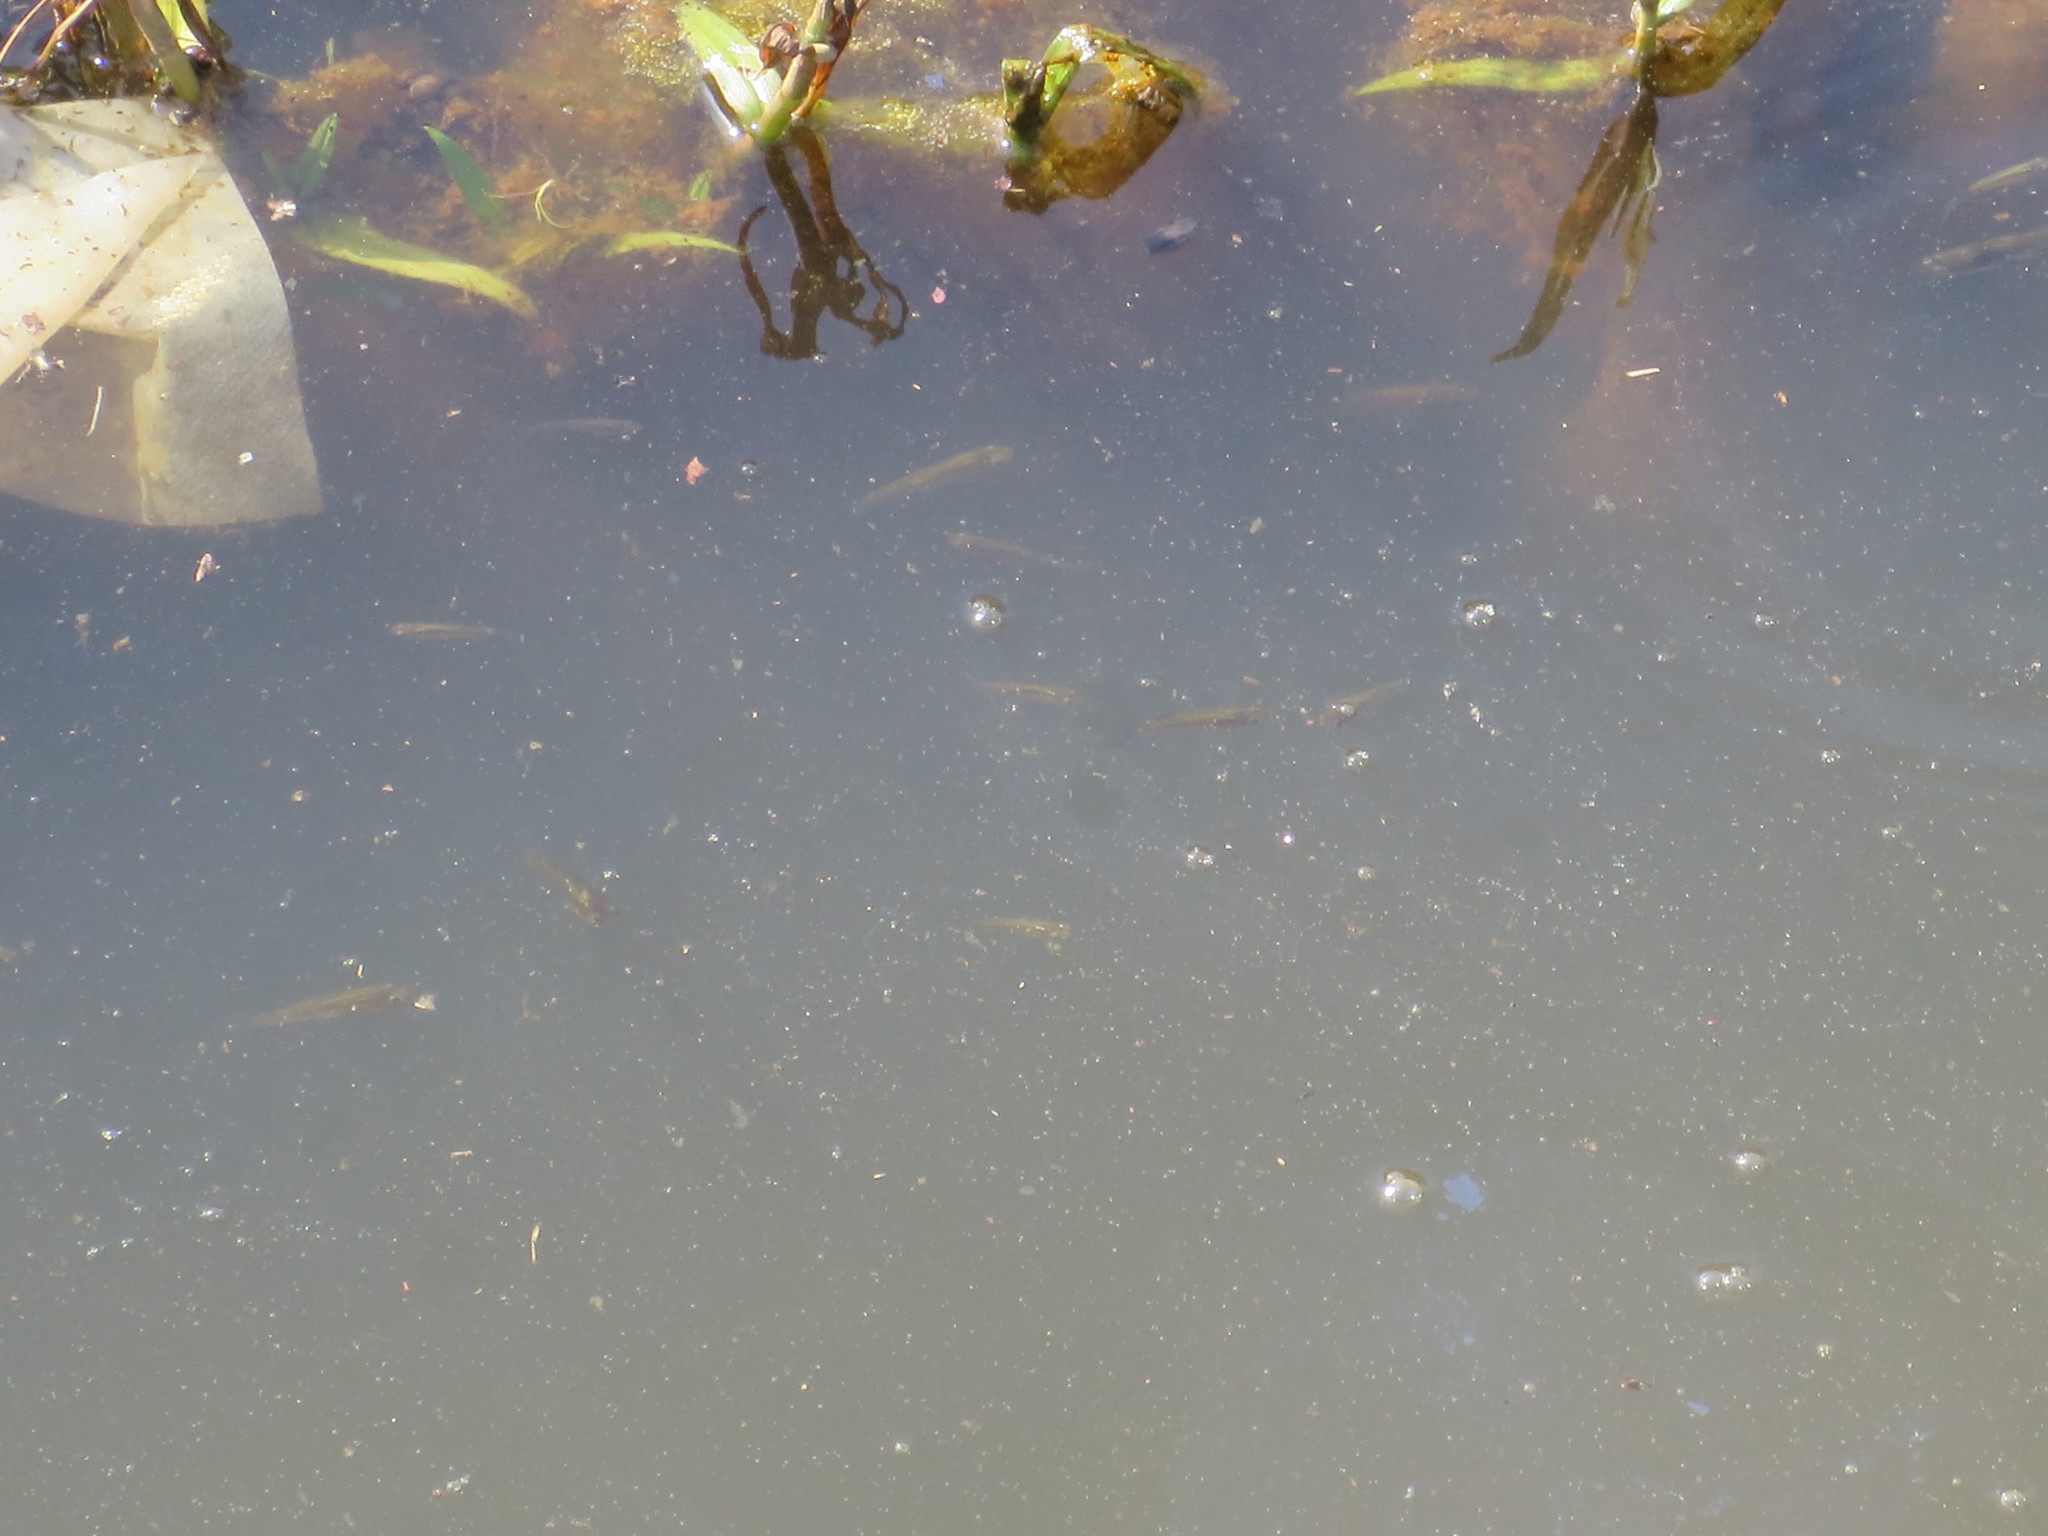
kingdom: Animalia
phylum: Chordata
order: Cyprinodontiformes
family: Poeciliidae
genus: Gambusia
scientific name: Gambusia holbrooki
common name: Eastern mosquitofish
